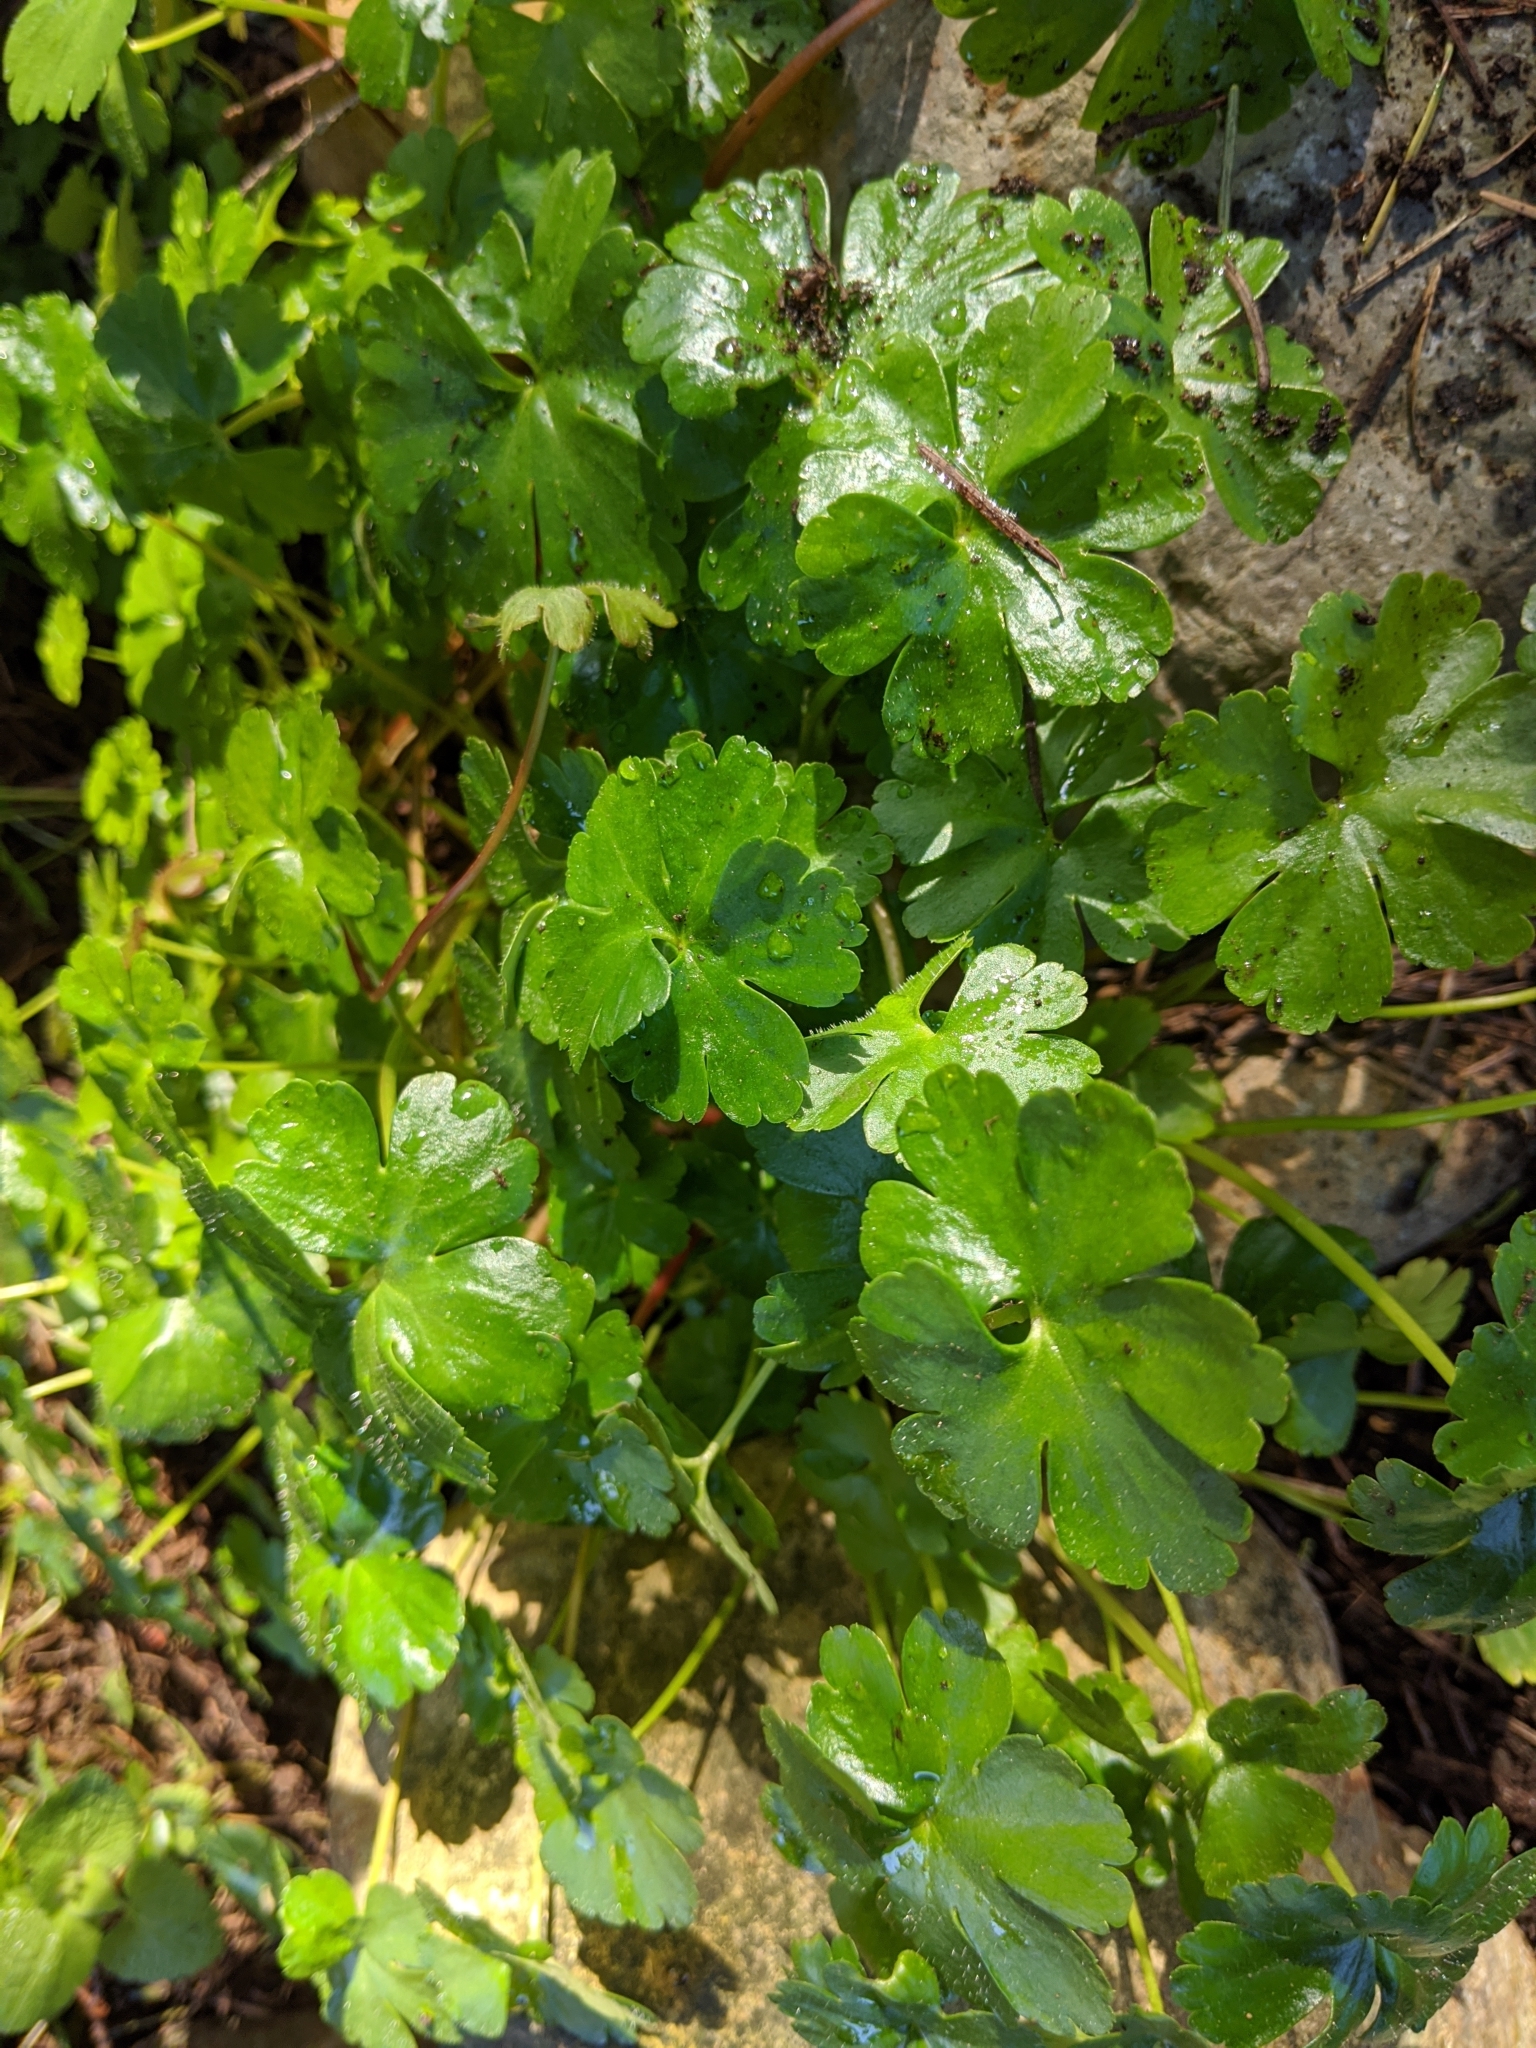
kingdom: Plantae
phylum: Tracheophyta
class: Magnoliopsida
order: Geraniales
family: Geraniaceae
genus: Geranium
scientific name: Geranium lucidum
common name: Shining crane's-bill
